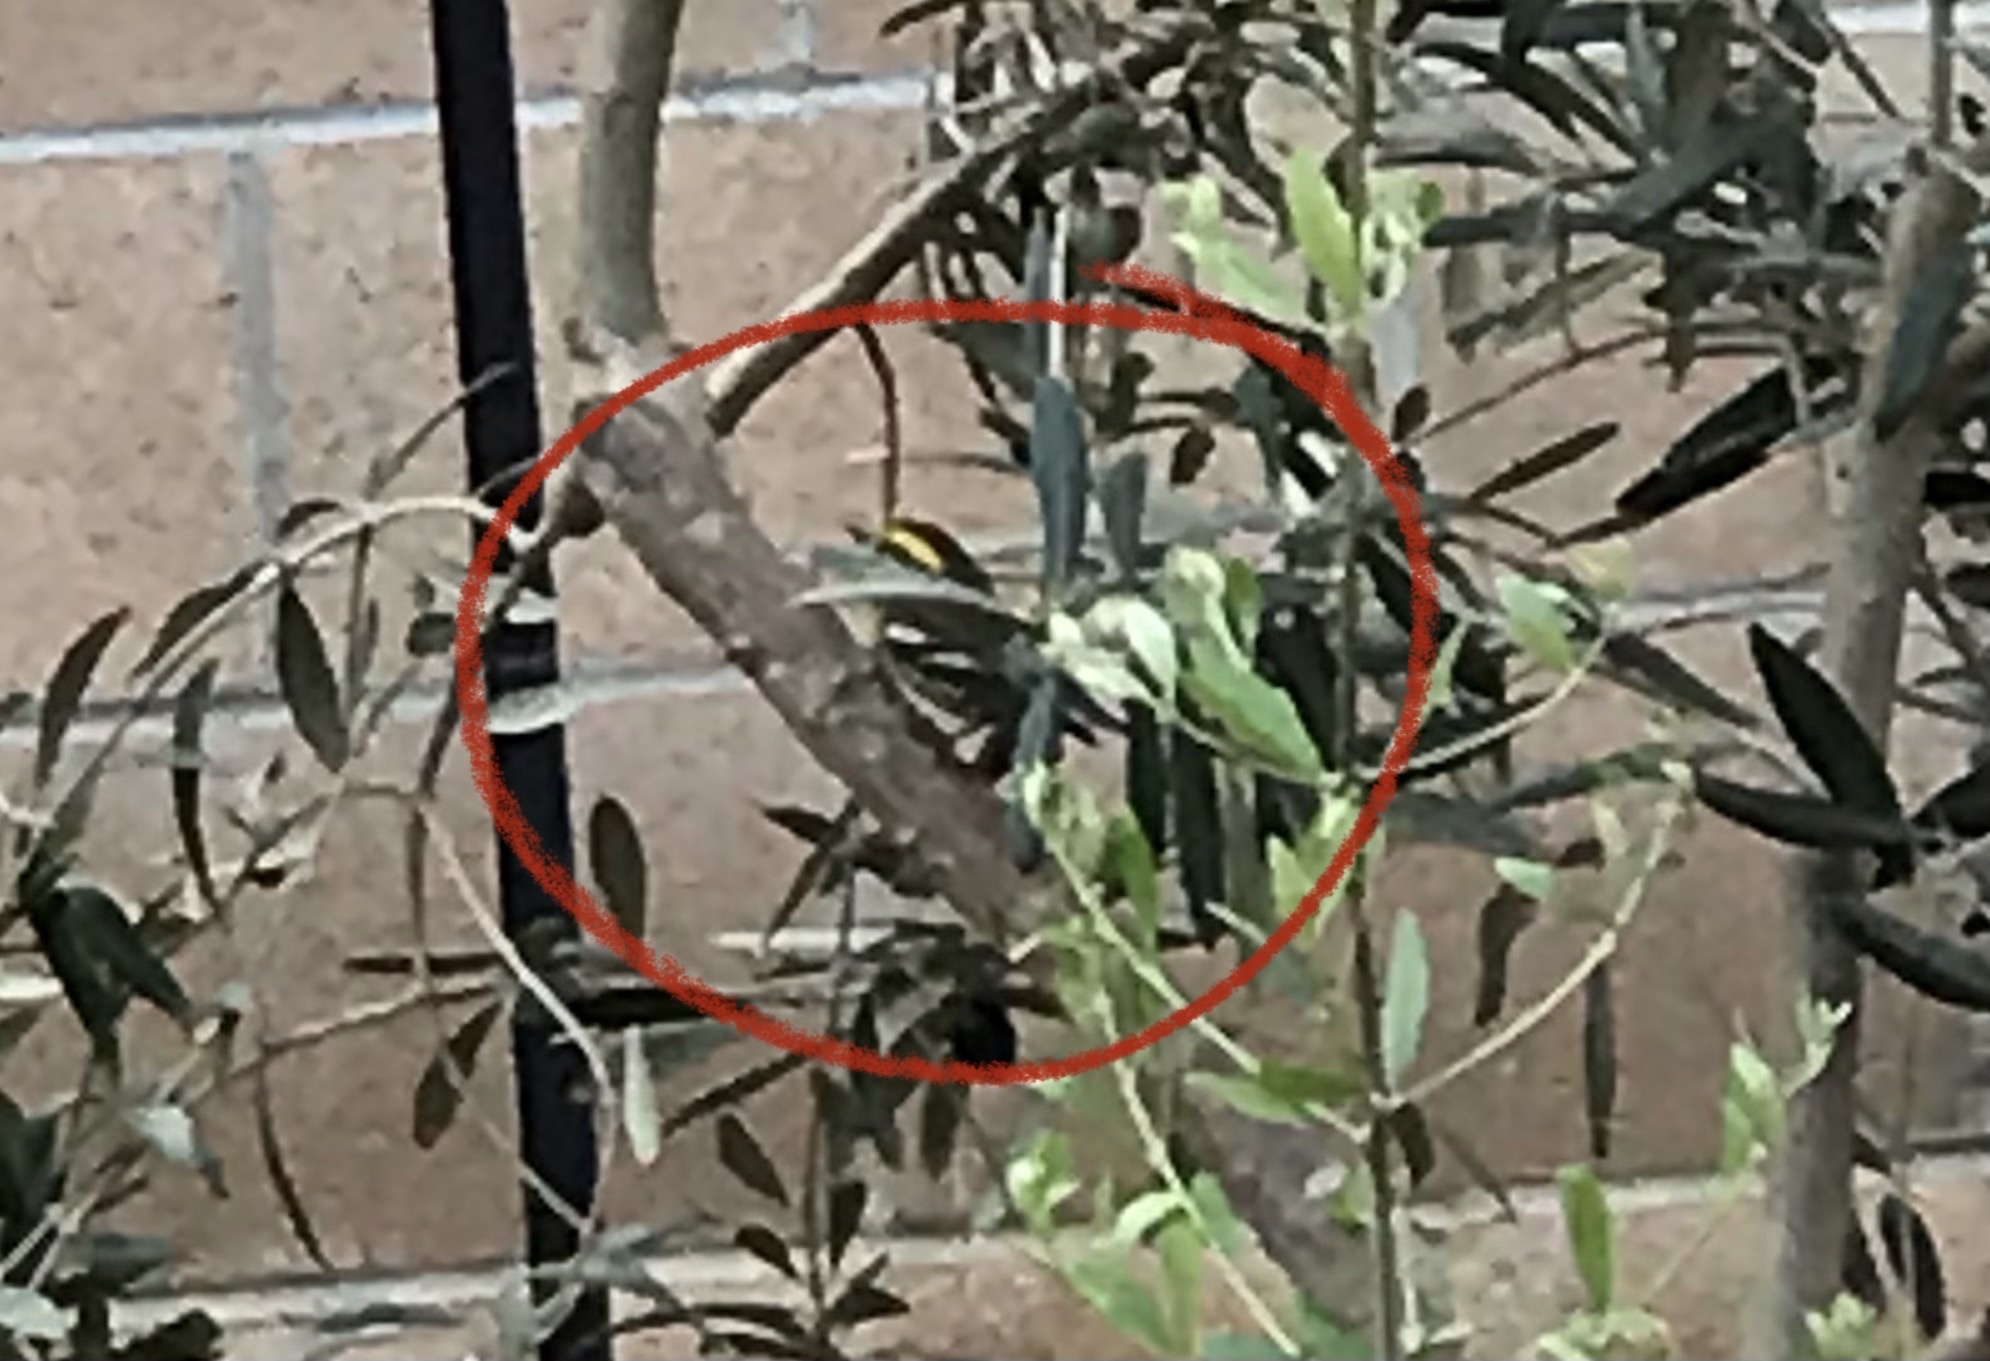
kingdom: Animalia
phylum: Chordata
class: Aves
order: Passeriformes
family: Parulidae
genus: Setophaga
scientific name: Setophaga townsendi
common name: Townsend's warbler
